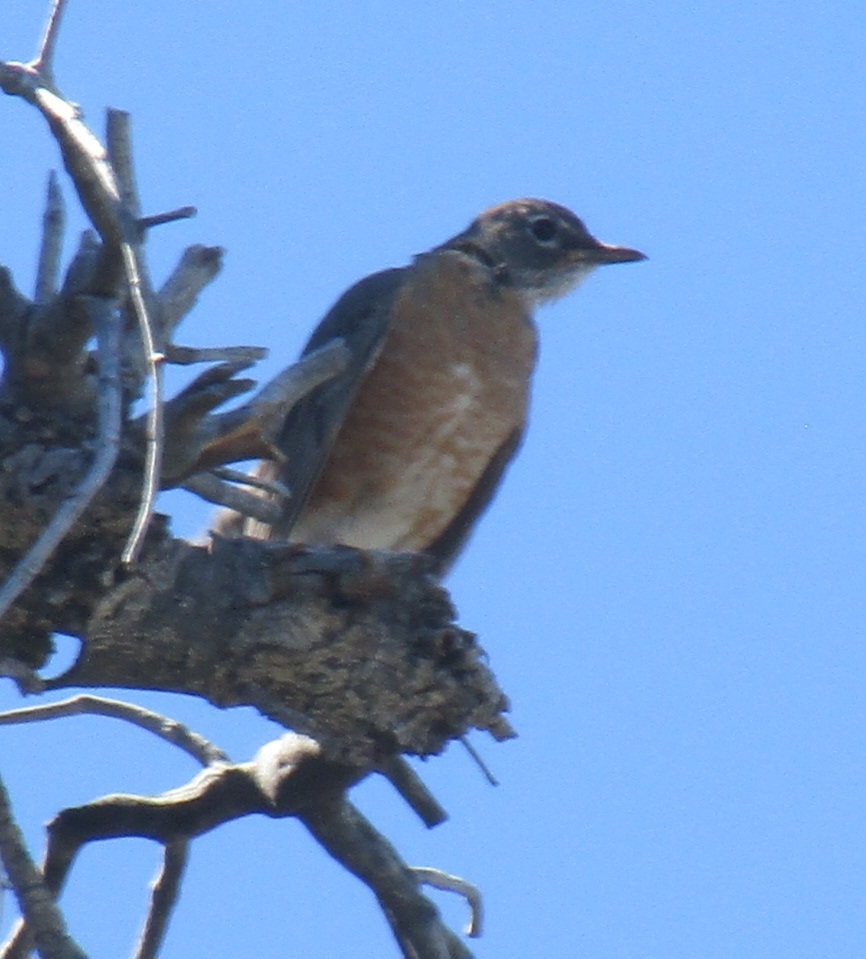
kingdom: Animalia
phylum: Chordata
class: Aves
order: Passeriformes
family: Turdidae
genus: Turdus
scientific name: Turdus migratorius
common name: American robin
